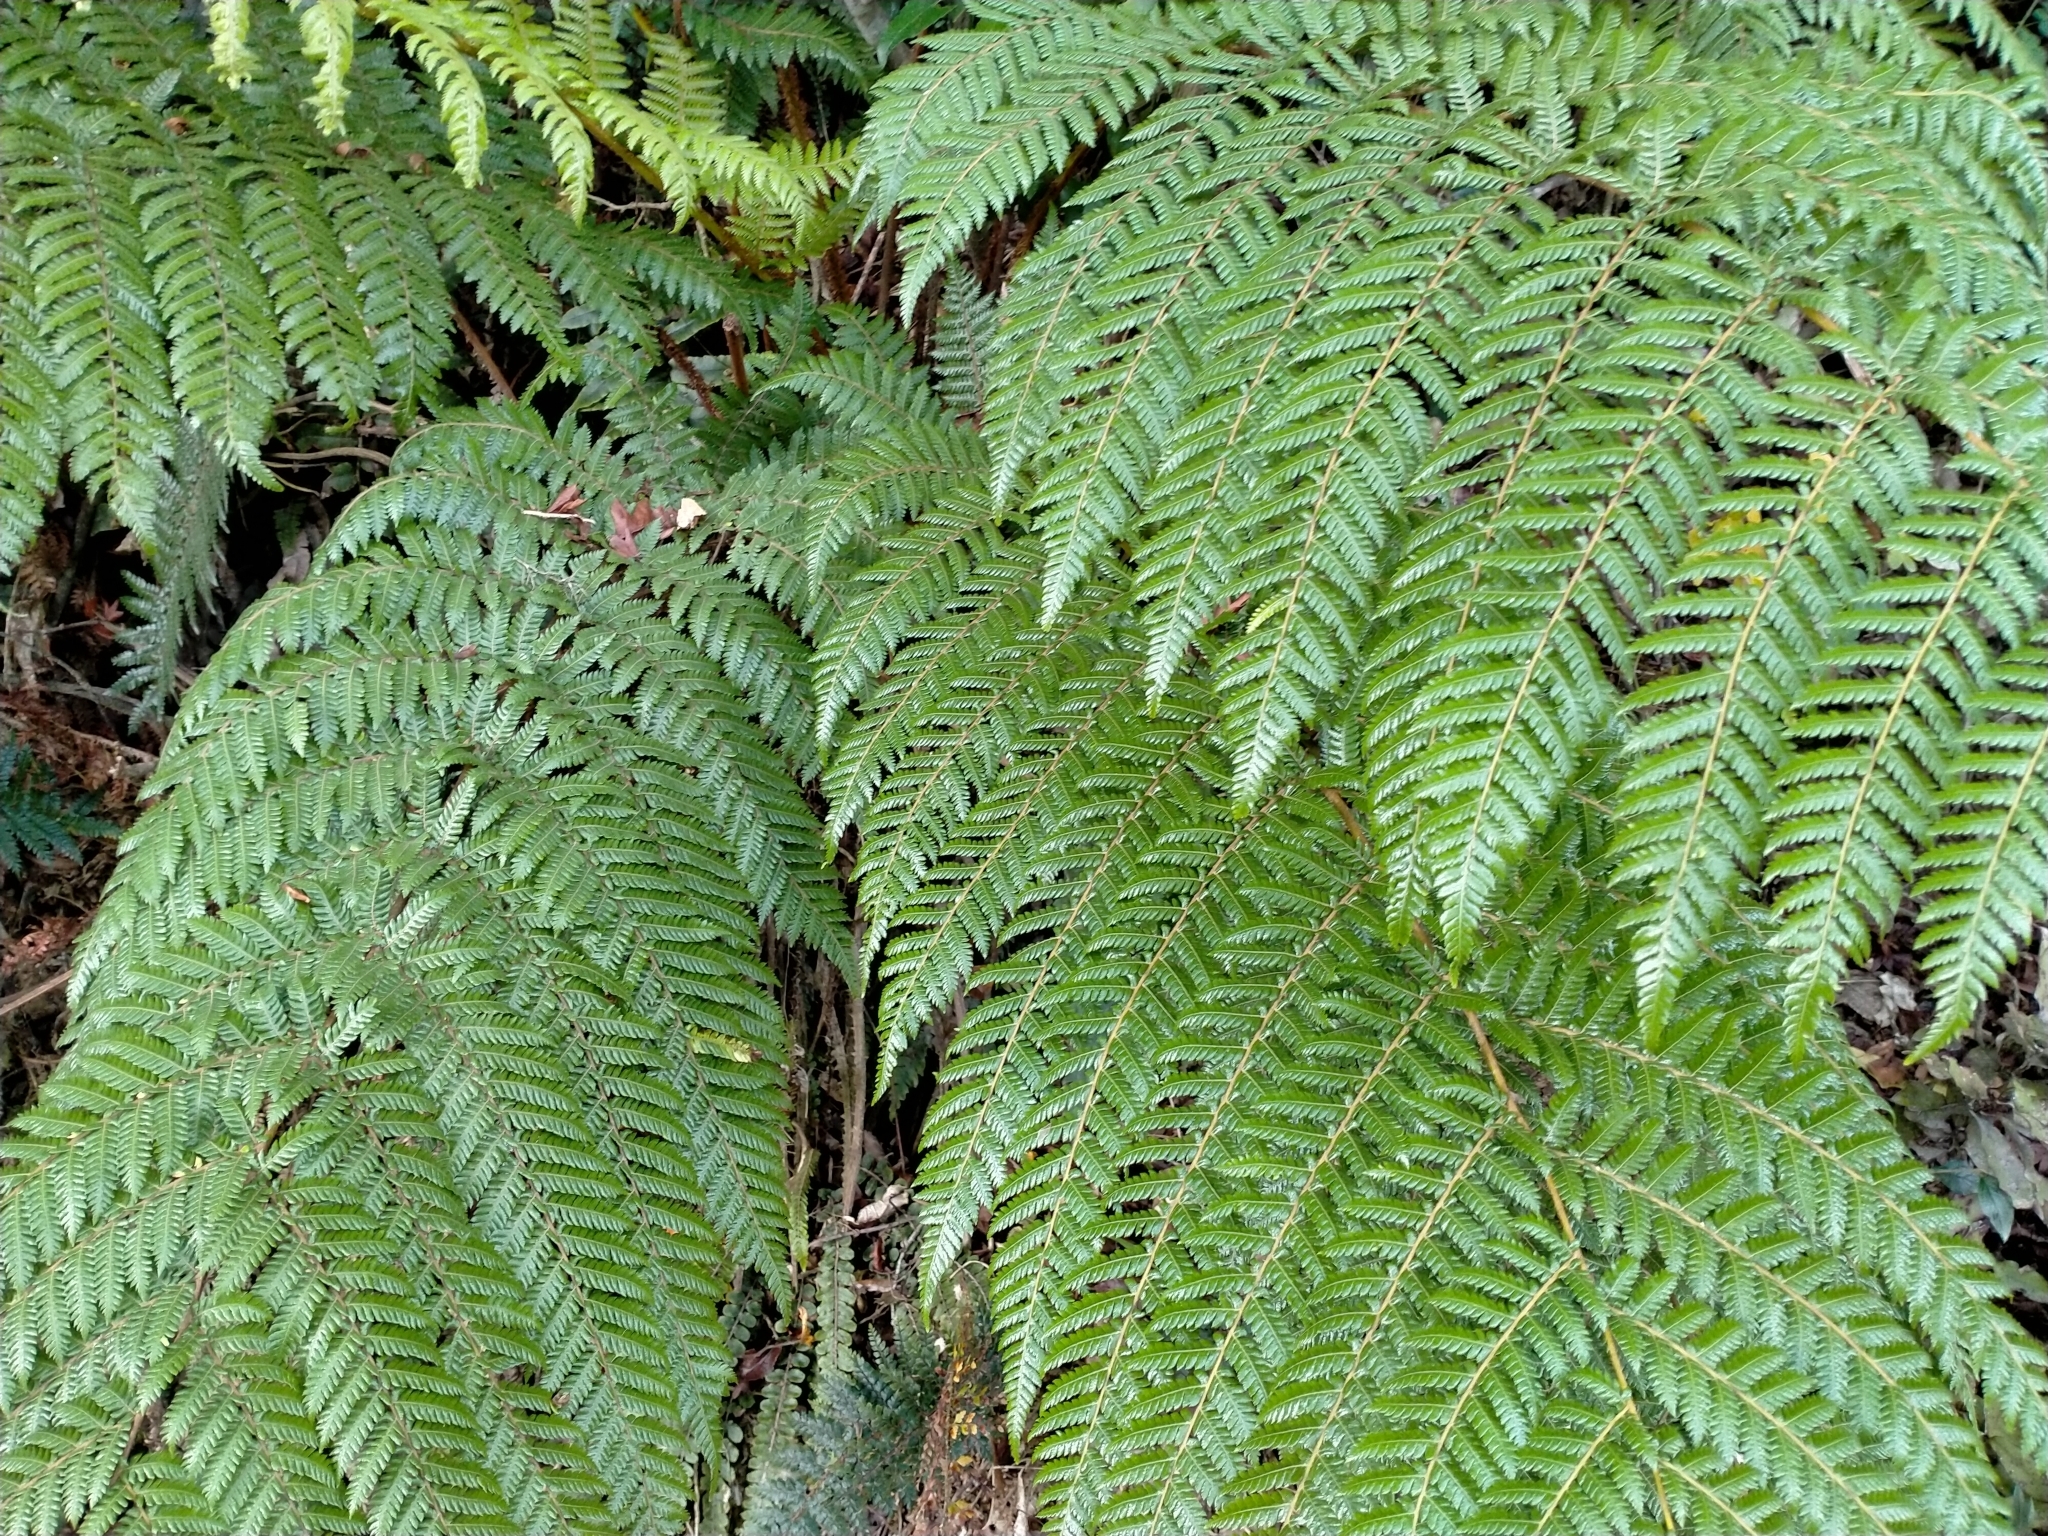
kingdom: Plantae
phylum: Tracheophyta
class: Polypodiopsida
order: Cyatheales
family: Cyatheaceae
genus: Alsophila
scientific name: Alsophila smithii
